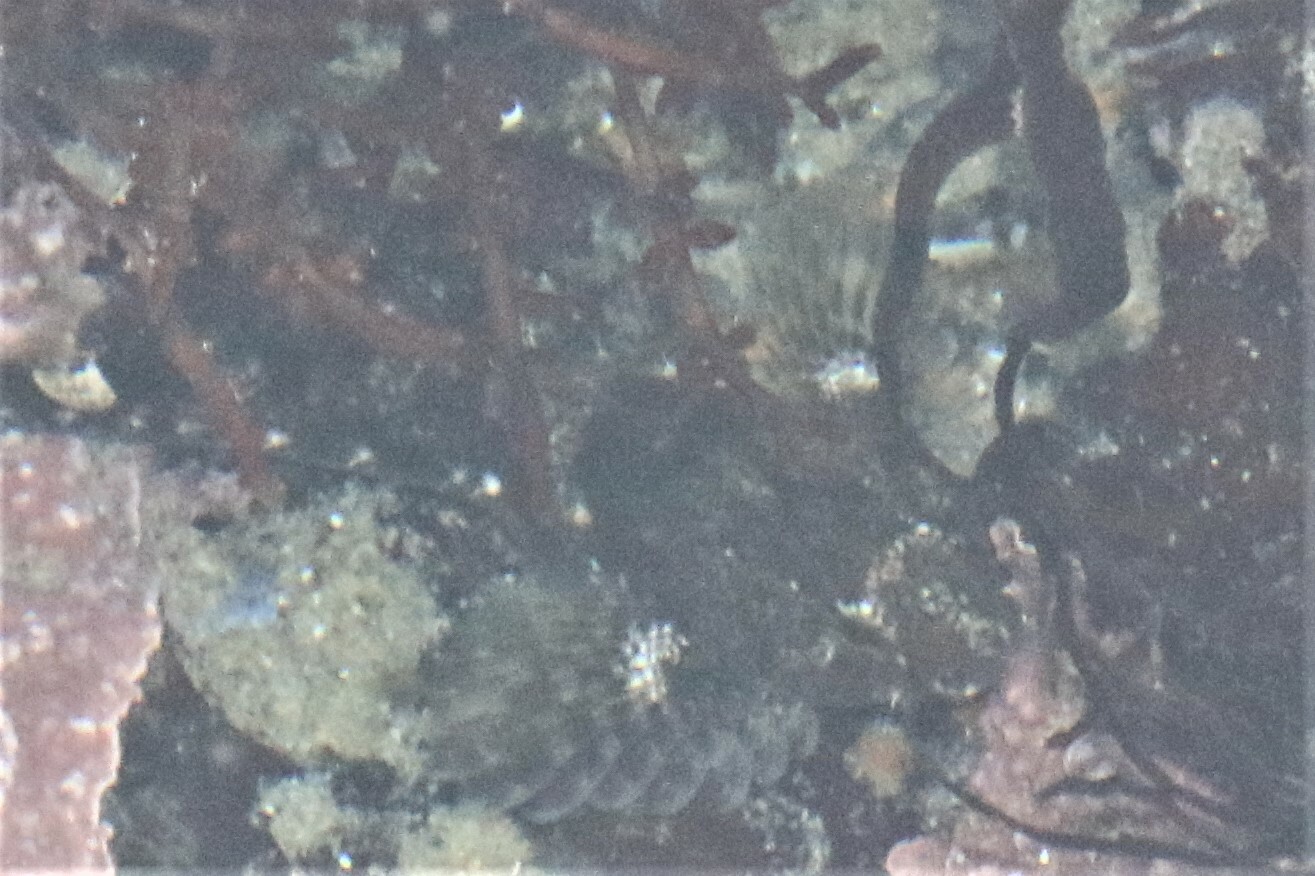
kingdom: Animalia
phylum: Chordata
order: Scorpaeniformes
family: Cottidae
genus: Oligocottus
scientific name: Oligocottus maculosus
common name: Tidepool sculpin
